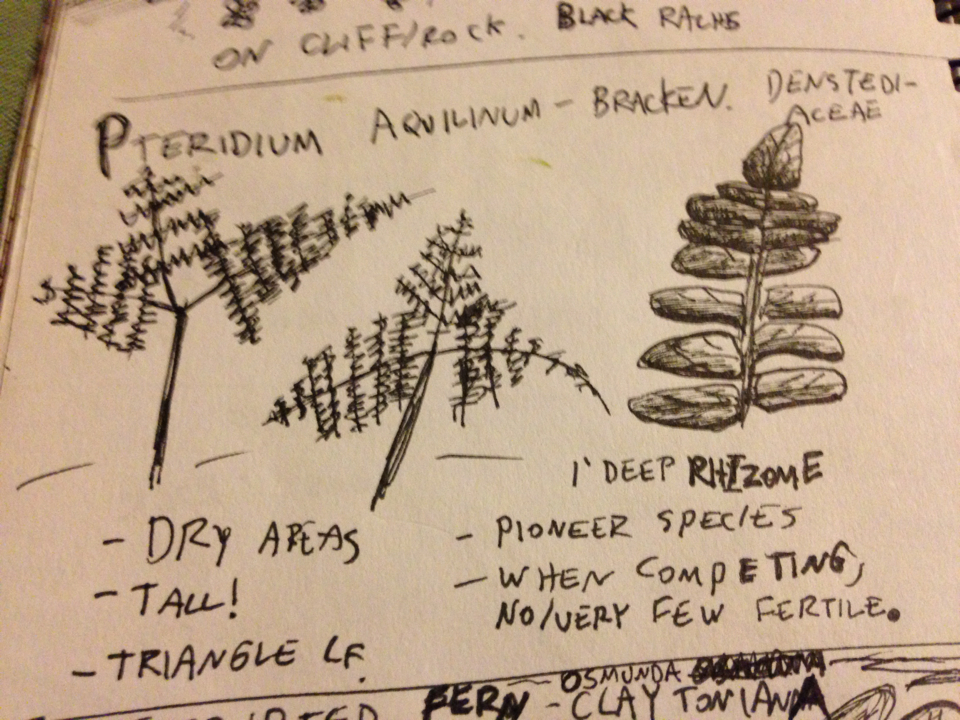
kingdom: Plantae
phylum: Tracheophyta
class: Polypodiopsida
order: Polypodiales
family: Dennstaedtiaceae
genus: Pteridium
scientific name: Pteridium aquilinum
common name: Bracken
